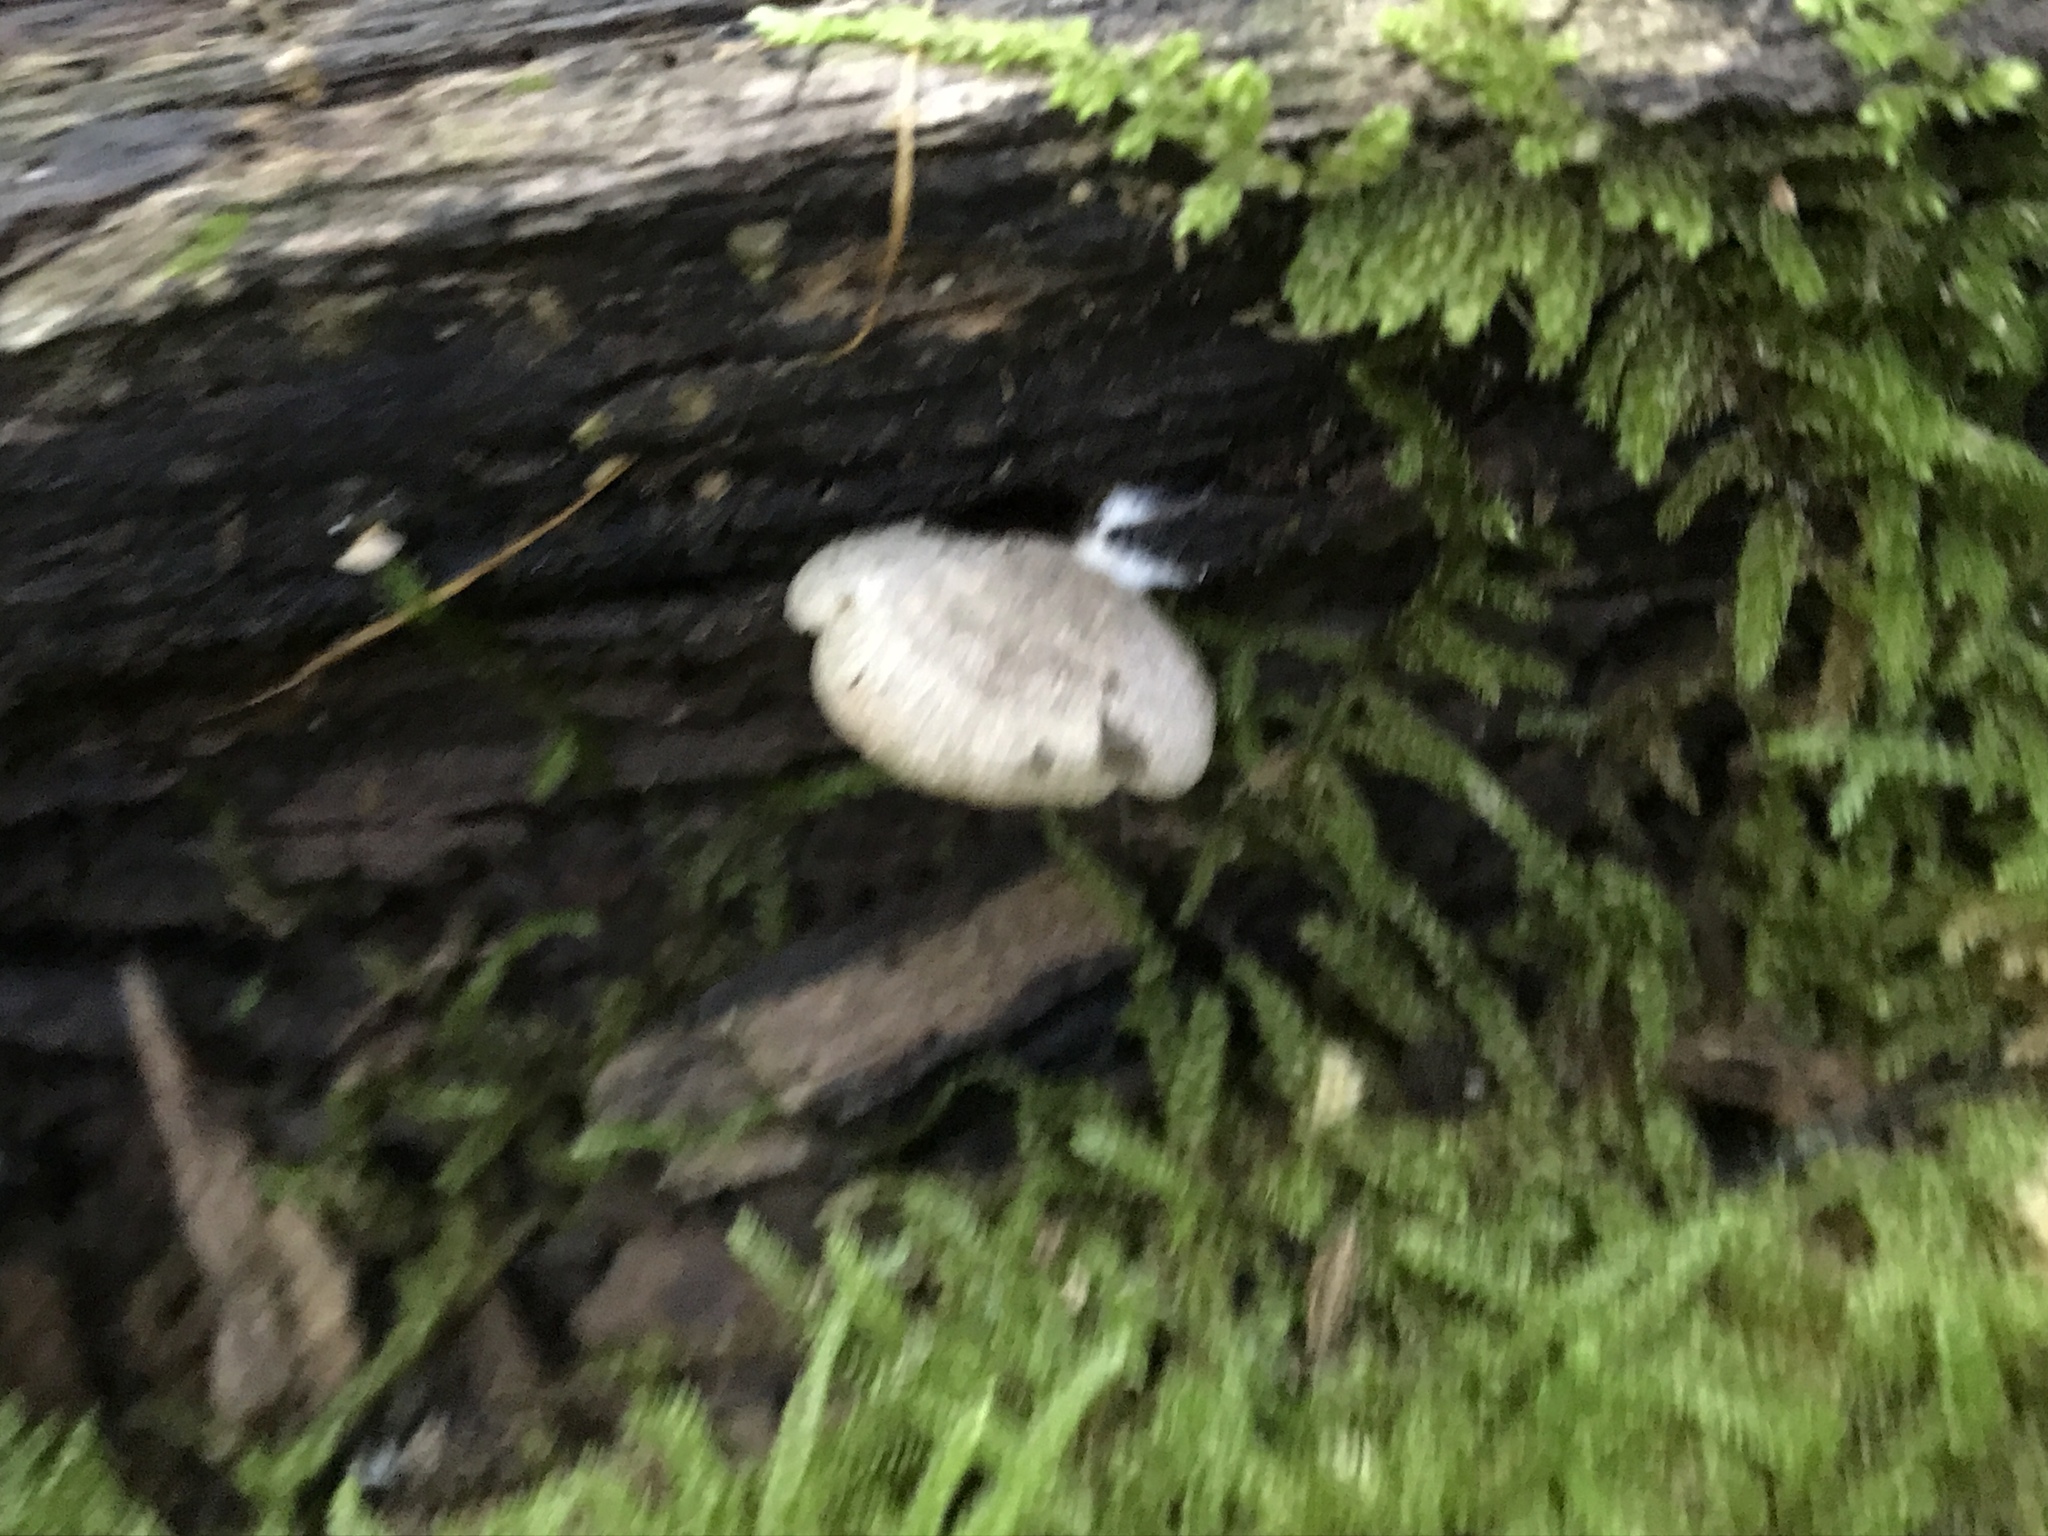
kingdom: Fungi
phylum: Basidiomycota
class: Agaricomycetes
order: Agaricales
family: Crepidotaceae
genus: Crepidotus
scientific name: Crepidotus applanatus
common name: Flat crep
